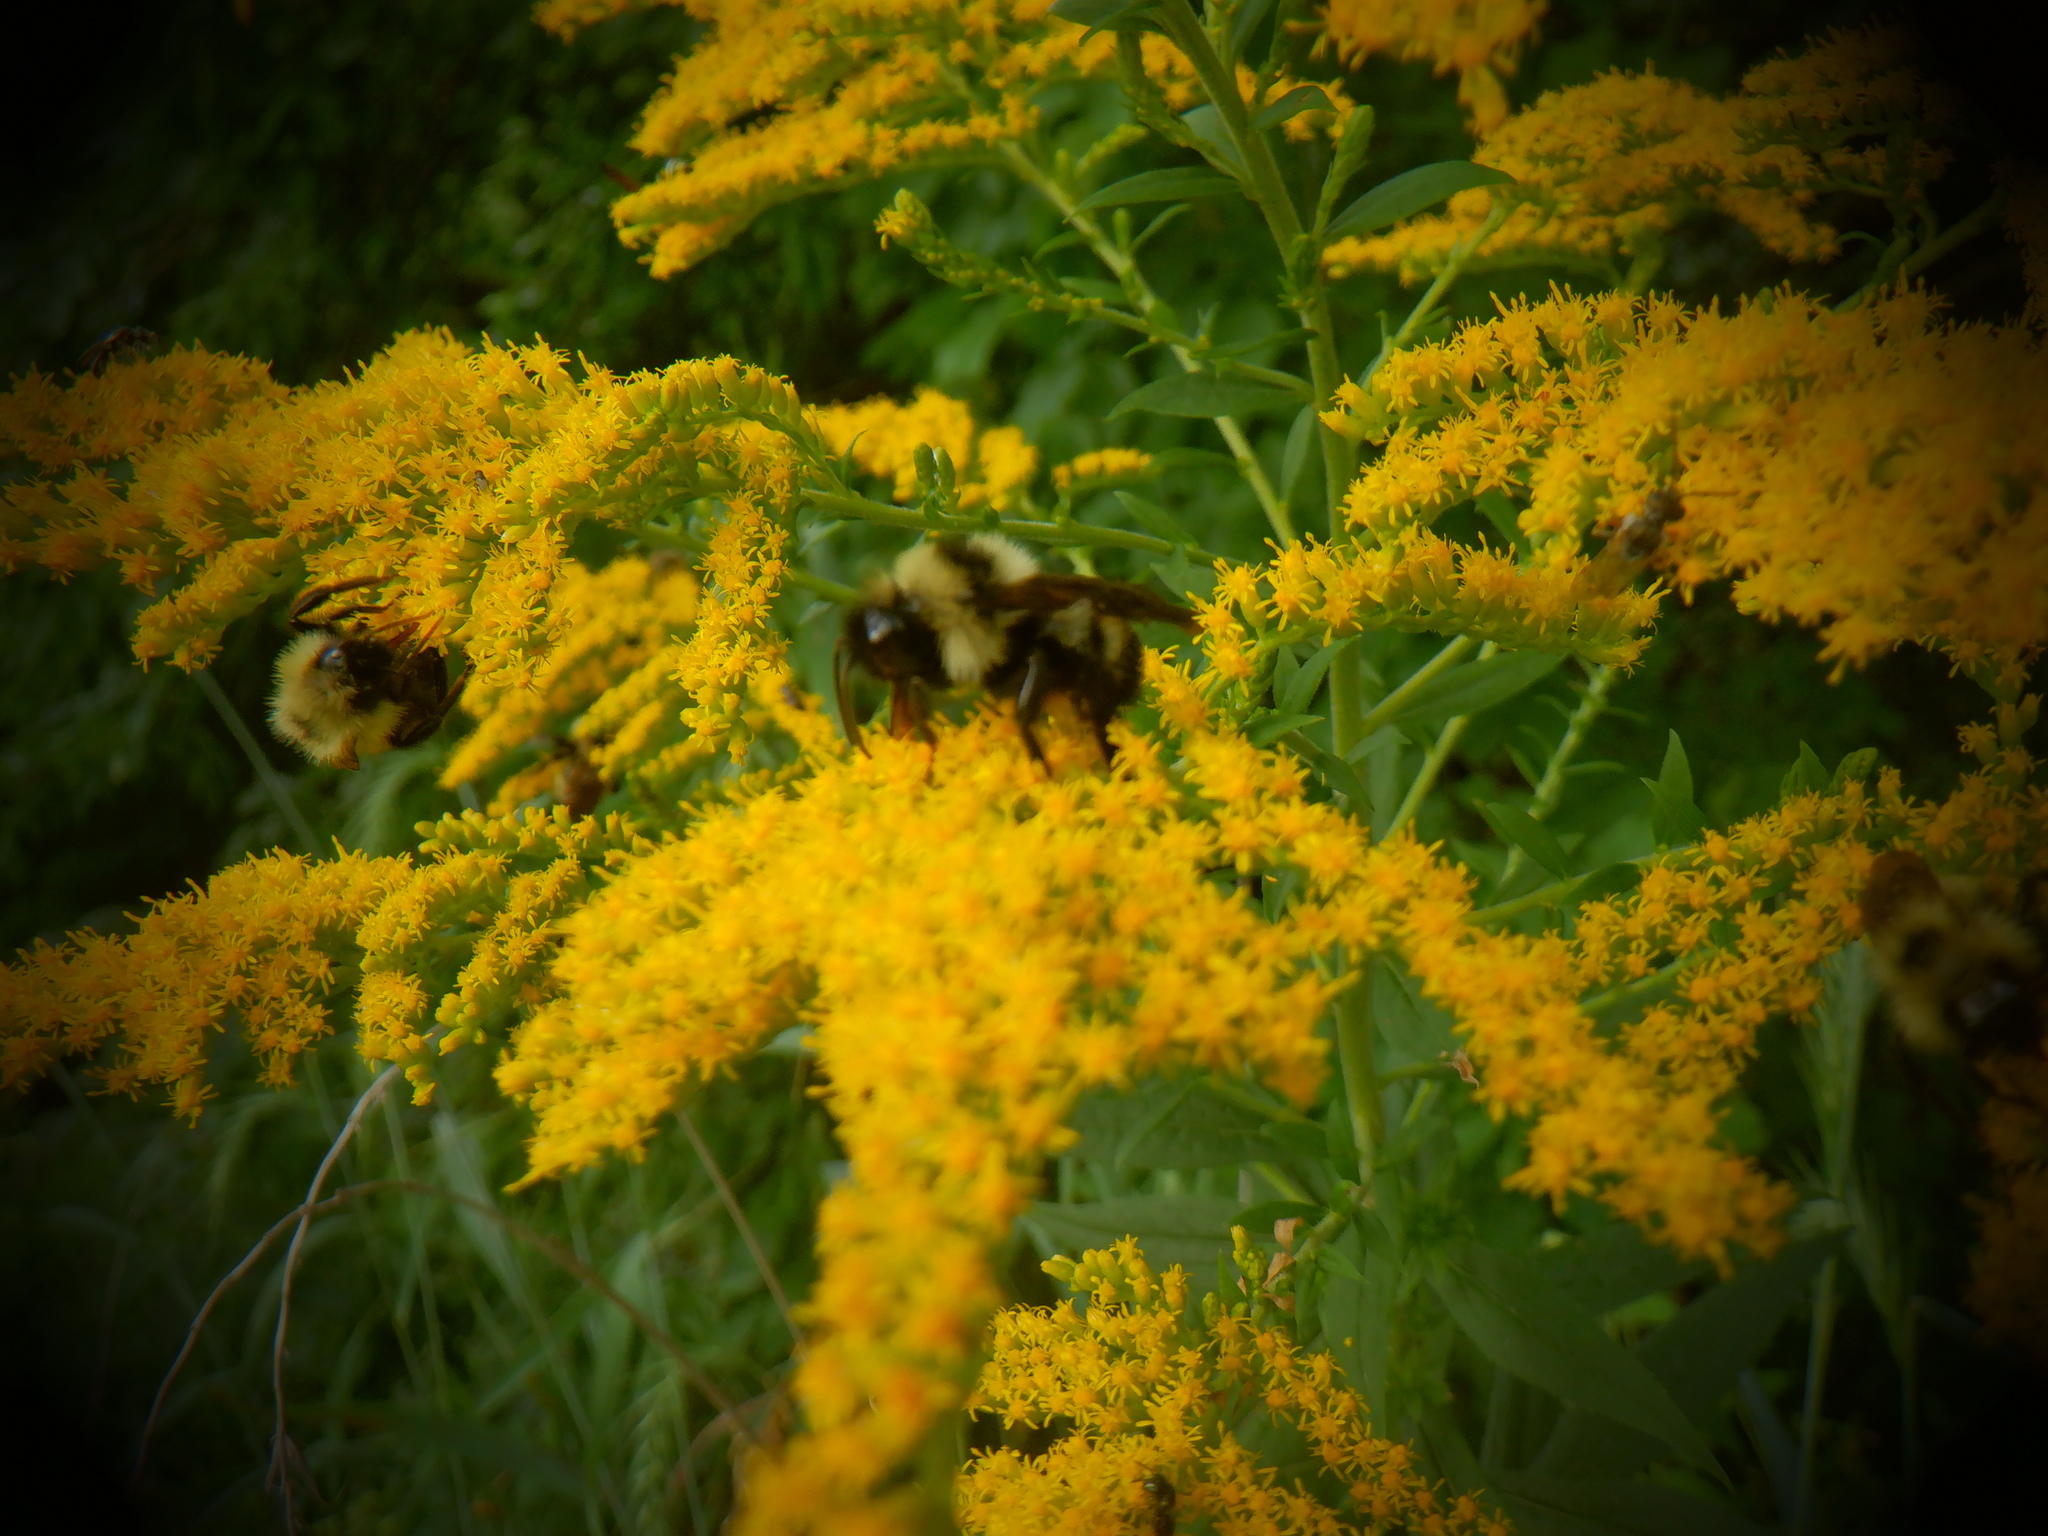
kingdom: Animalia
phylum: Arthropoda
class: Insecta
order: Hymenoptera
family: Apidae
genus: Bombus
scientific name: Bombus citrinus
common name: Lemon cuckoo bumble bee
